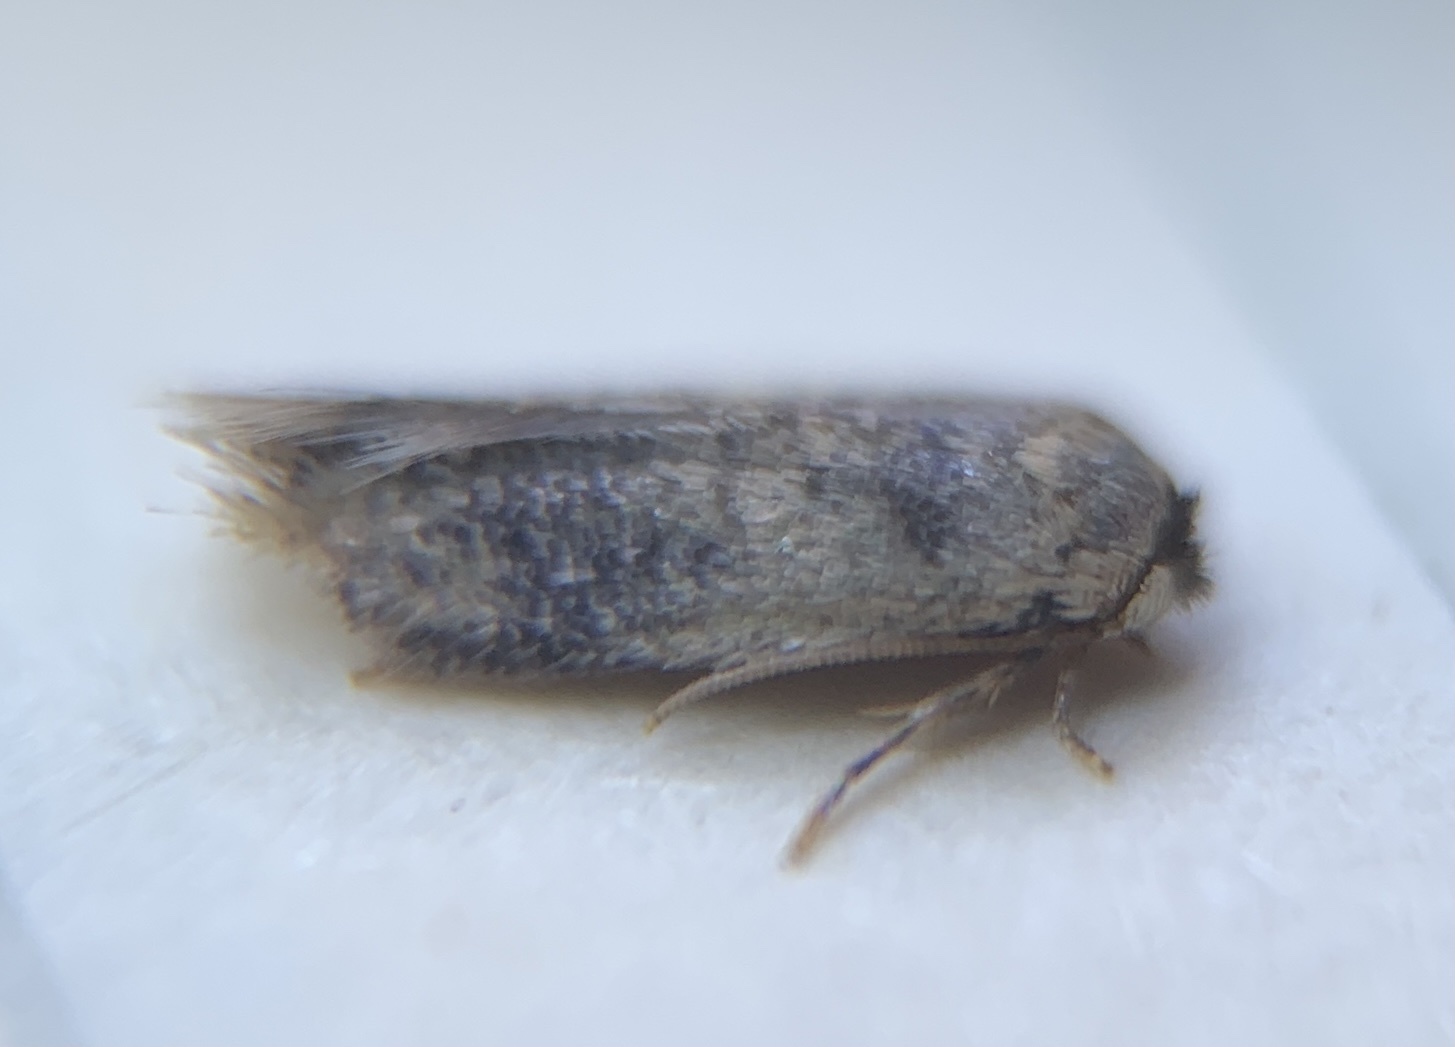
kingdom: Animalia
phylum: Arthropoda
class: Insecta
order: Lepidoptera
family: Nepticulidae
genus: Zimmermannia
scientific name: Zimmermannia bosquella
